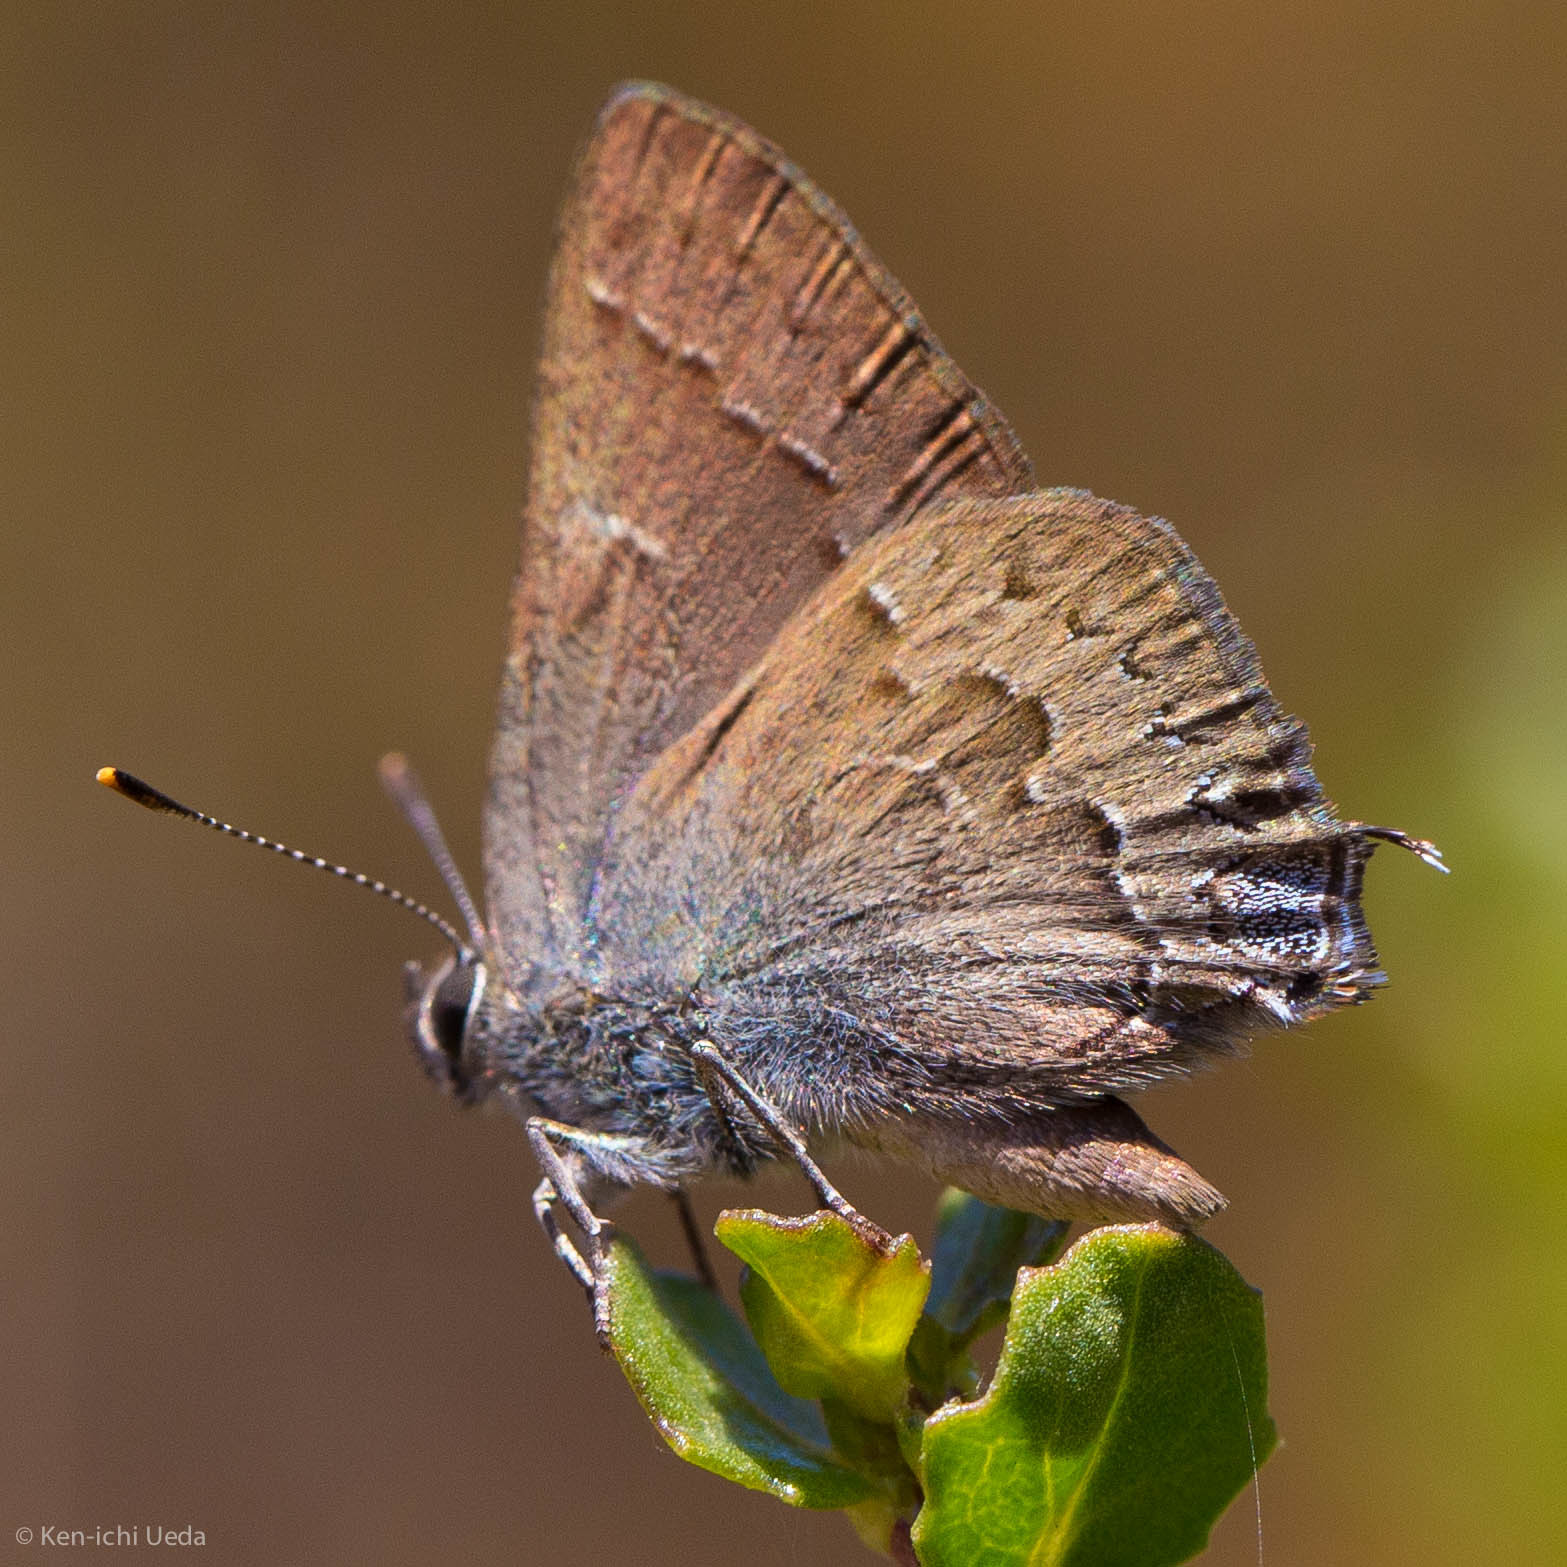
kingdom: Animalia
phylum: Arthropoda
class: Insecta
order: Lepidoptera
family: Lycaenidae
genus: Strymon
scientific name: Strymon saepium
